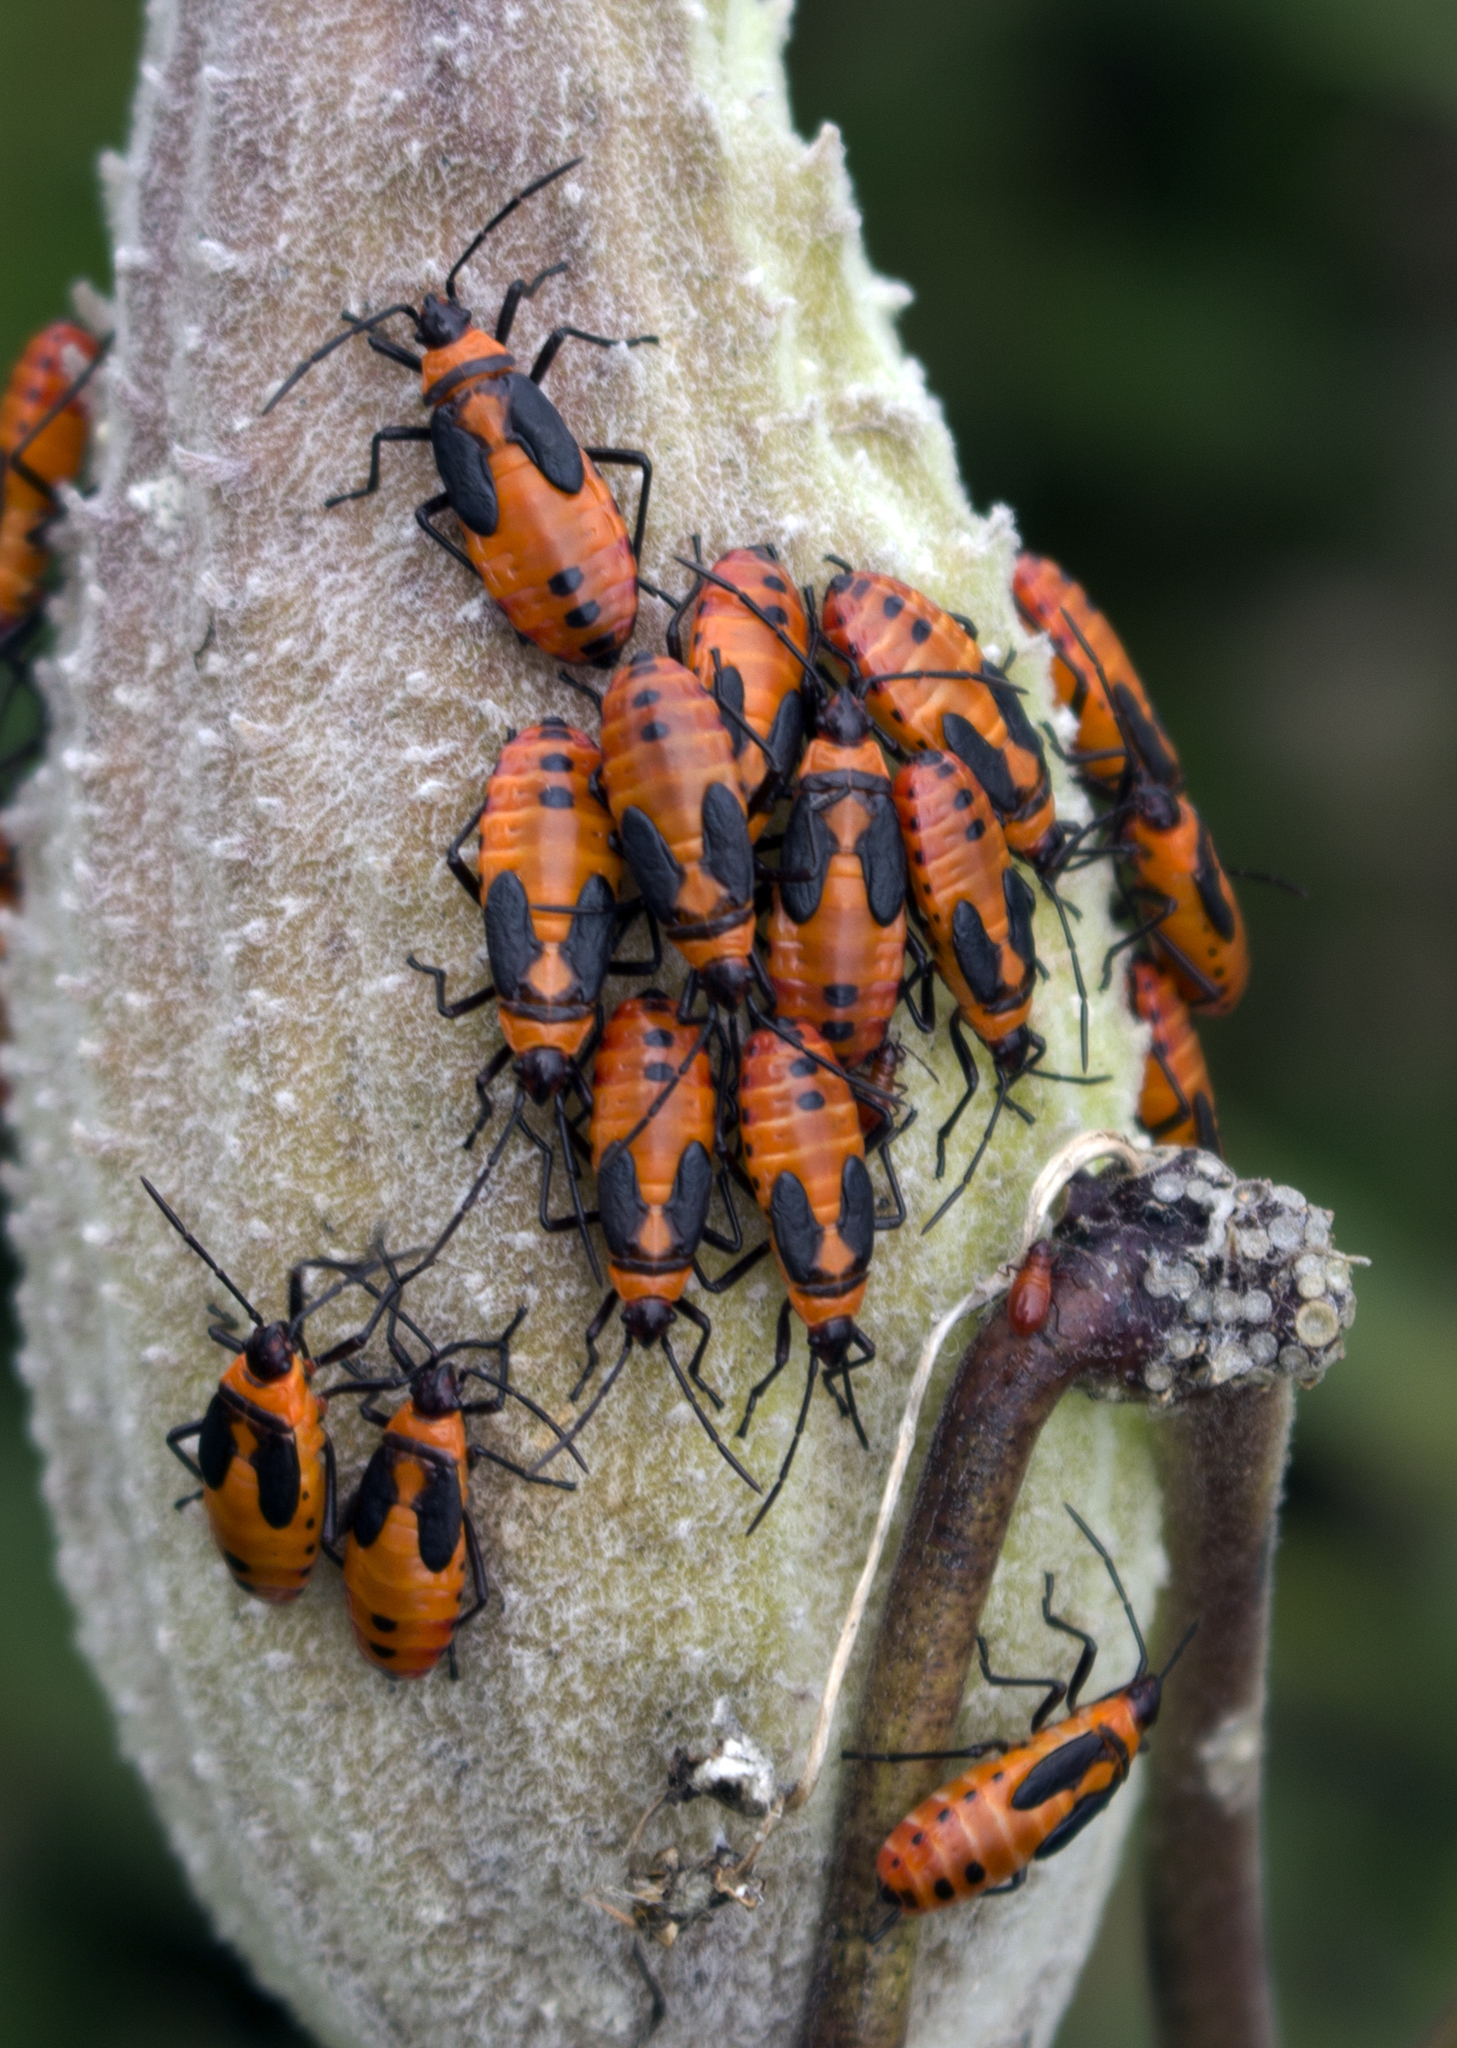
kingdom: Animalia
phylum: Arthropoda
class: Insecta
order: Hemiptera
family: Lygaeidae
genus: Oncopeltus
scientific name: Oncopeltus fasciatus
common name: Large milkweed bug
